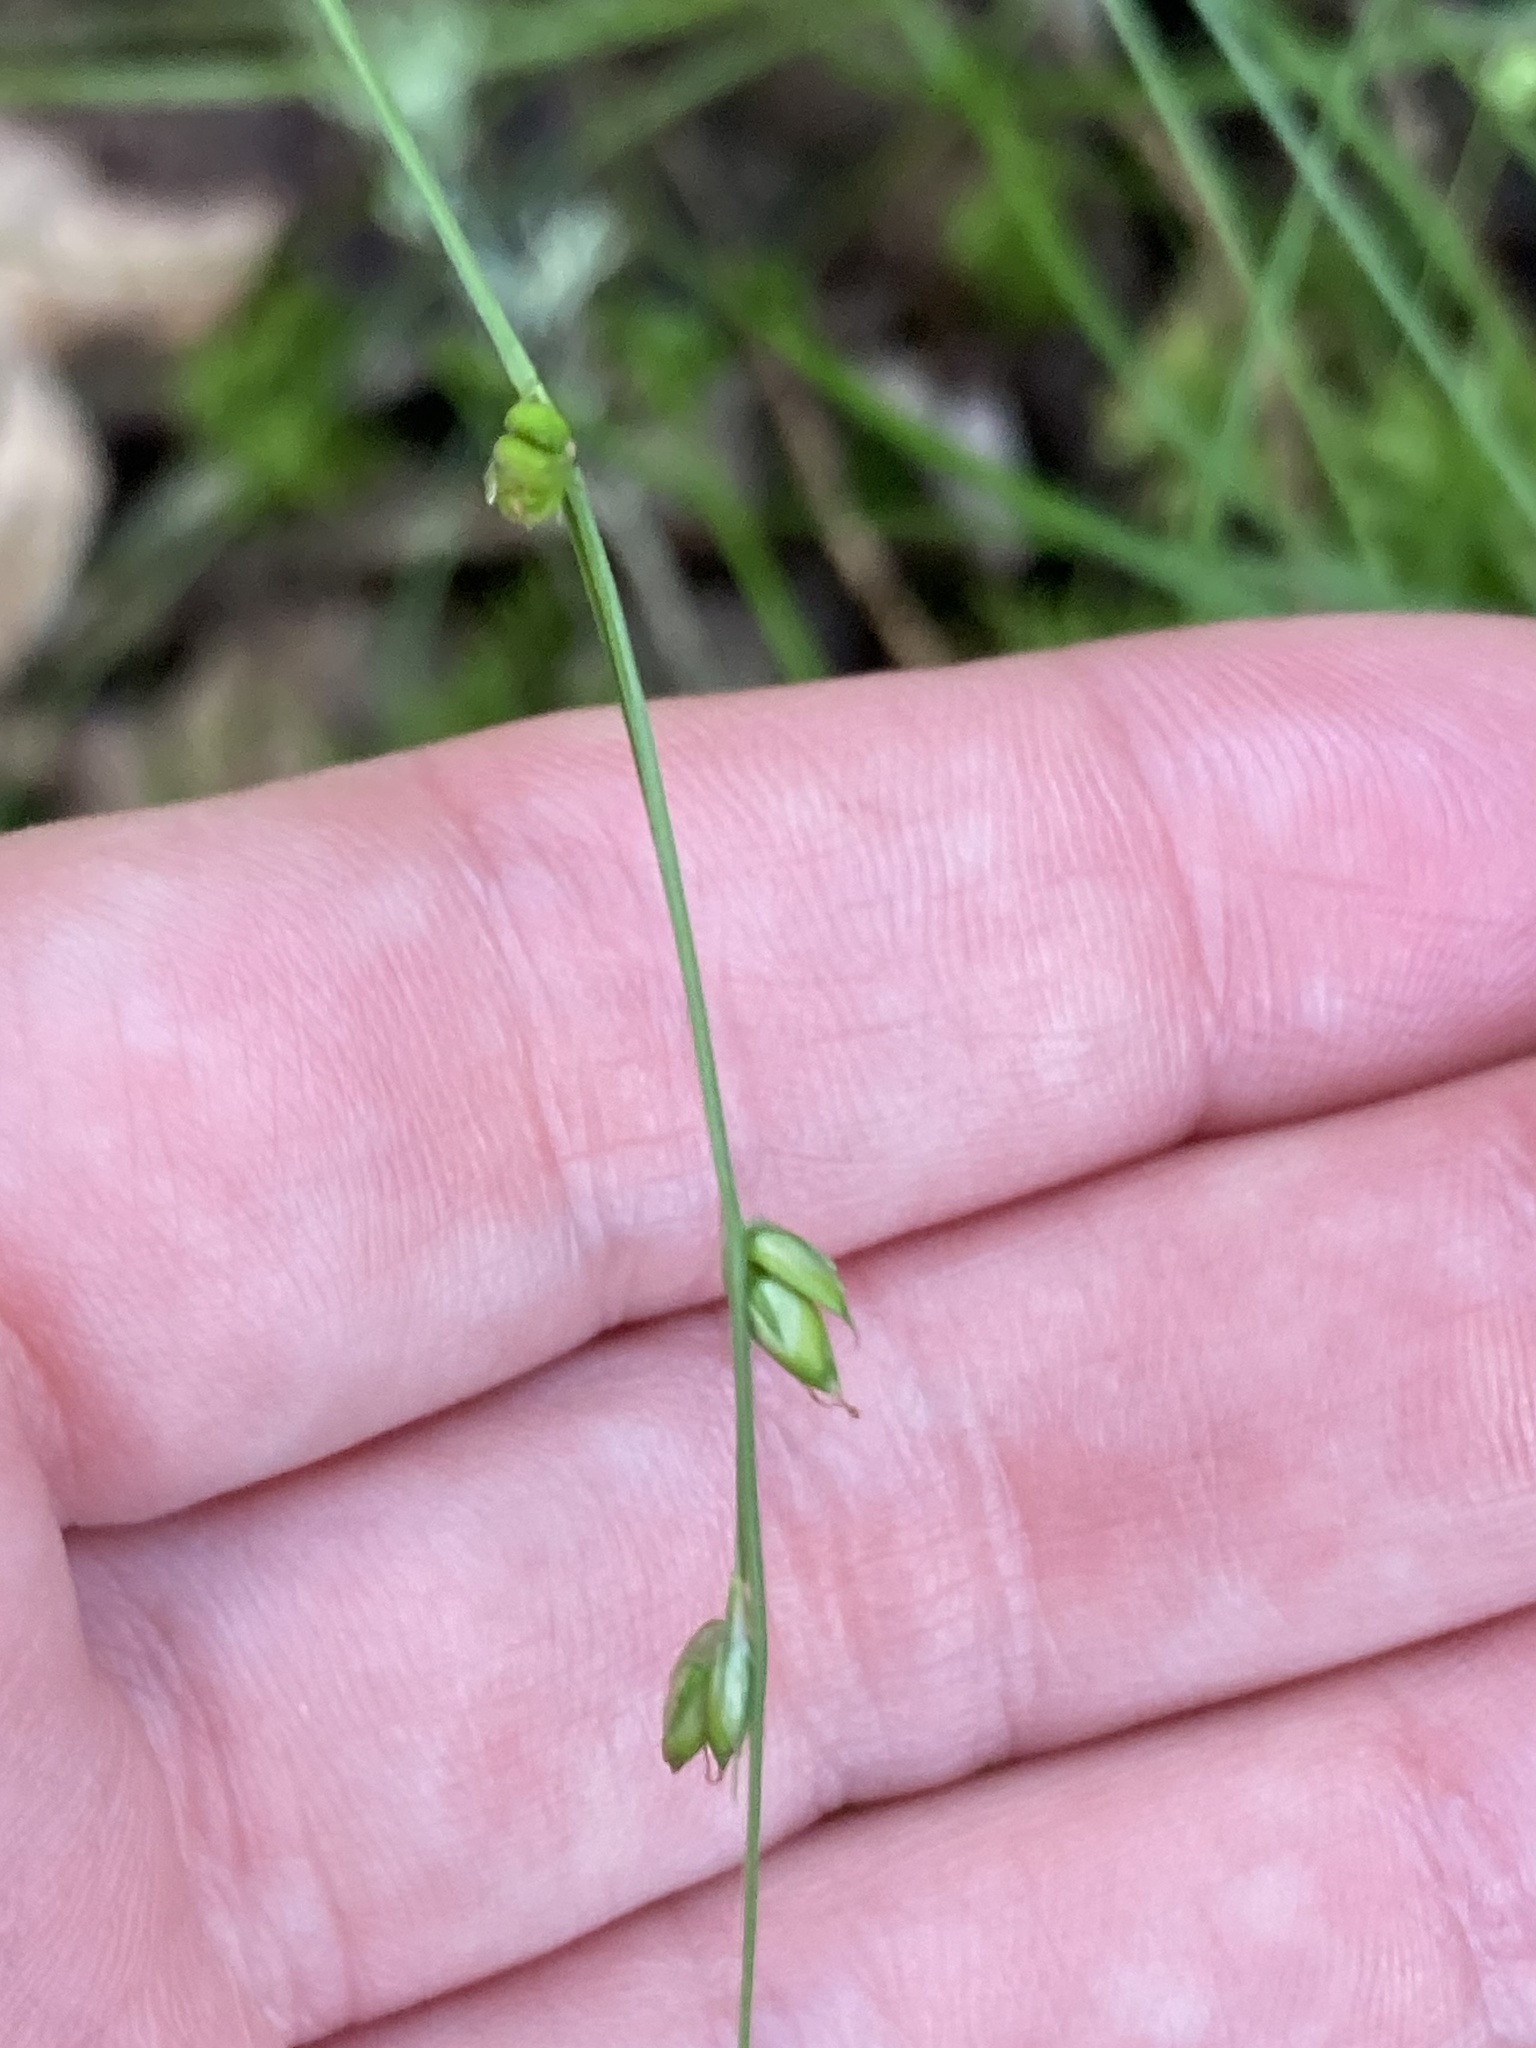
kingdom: Plantae
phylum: Tracheophyta
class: Liliopsida
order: Poales
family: Cyperaceae
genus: Carex
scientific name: Carex disperma
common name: Short-leaved sedge
